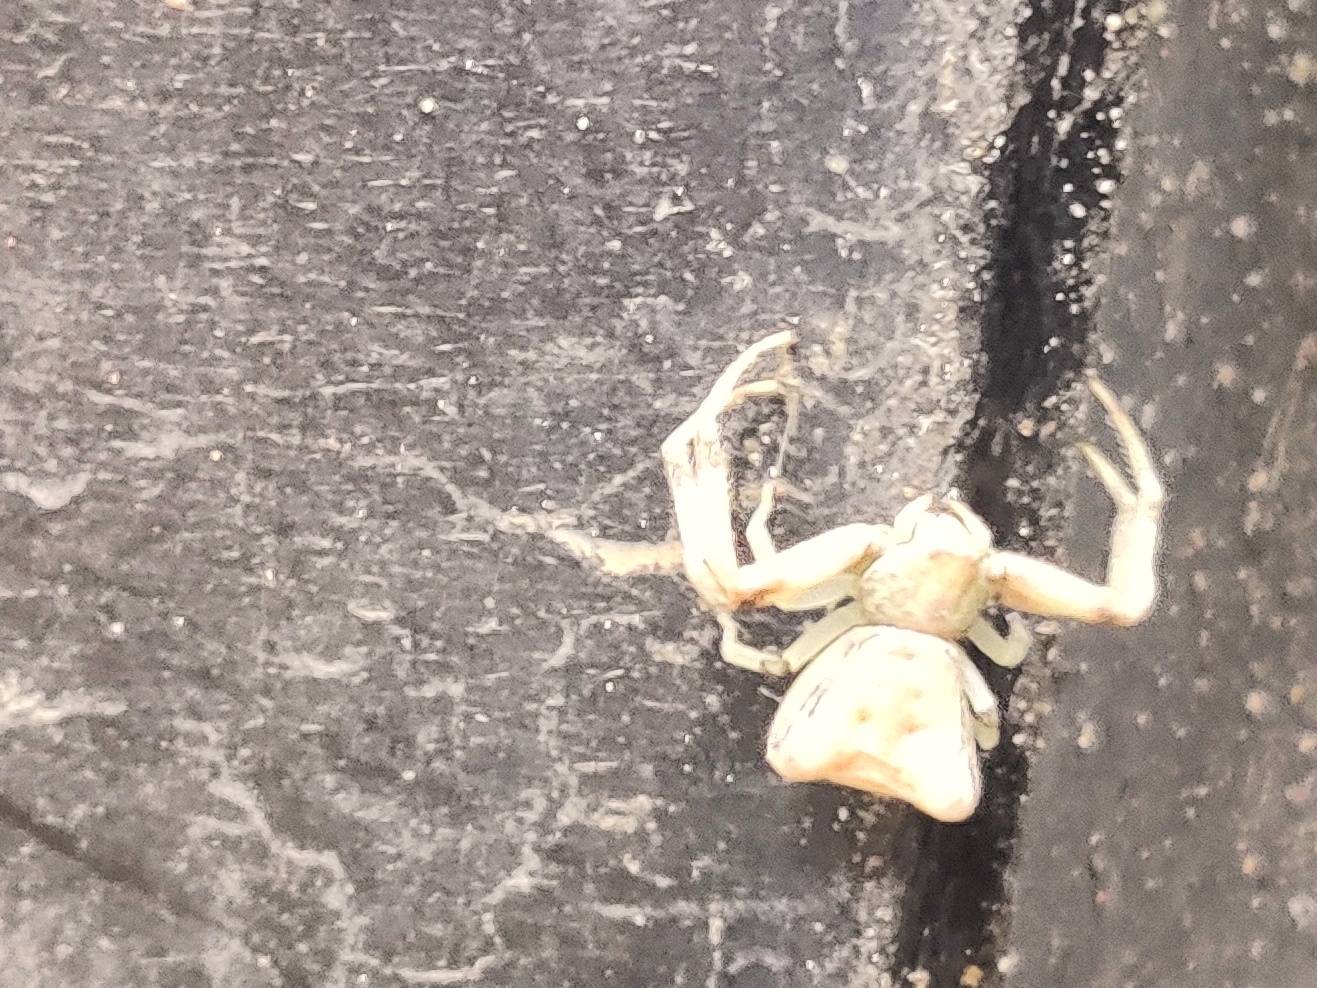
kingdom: Animalia
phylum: Arthropoda
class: Arachnida
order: Araneae
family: Thomisidae
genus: Pistius
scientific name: Pistius truncatus
